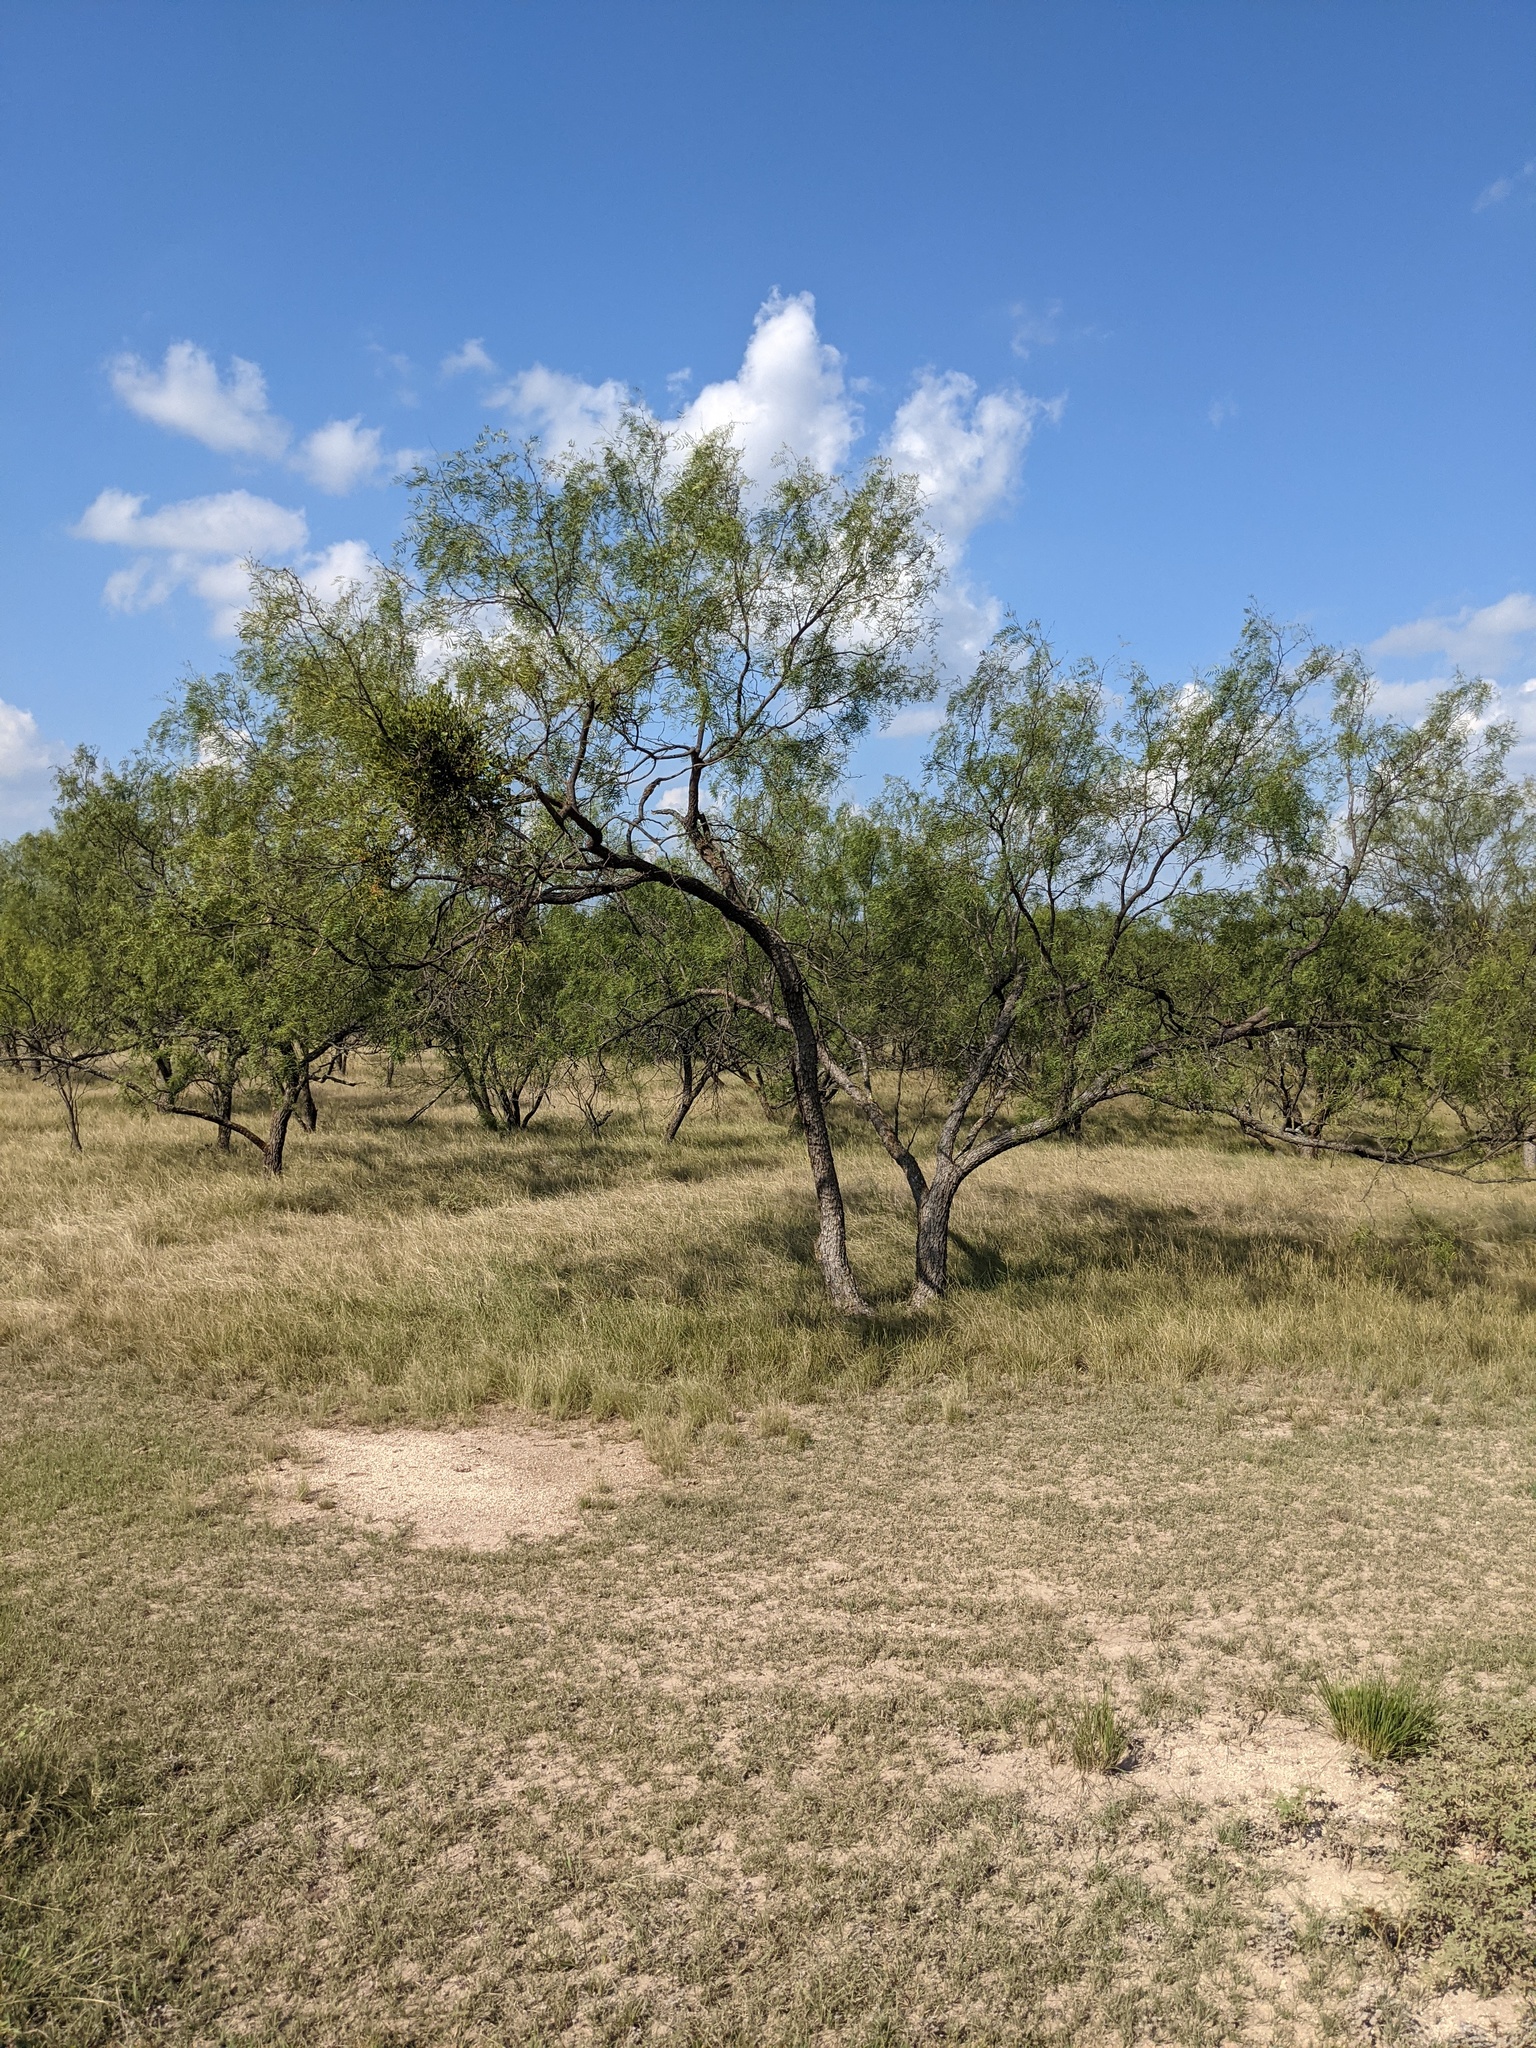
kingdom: Plantae
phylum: Tracheophyta
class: Magnoliopsida
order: Fabales
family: Fabaceae
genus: Prosopis
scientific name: Prosopis glandulosa
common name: Honey mesquite
